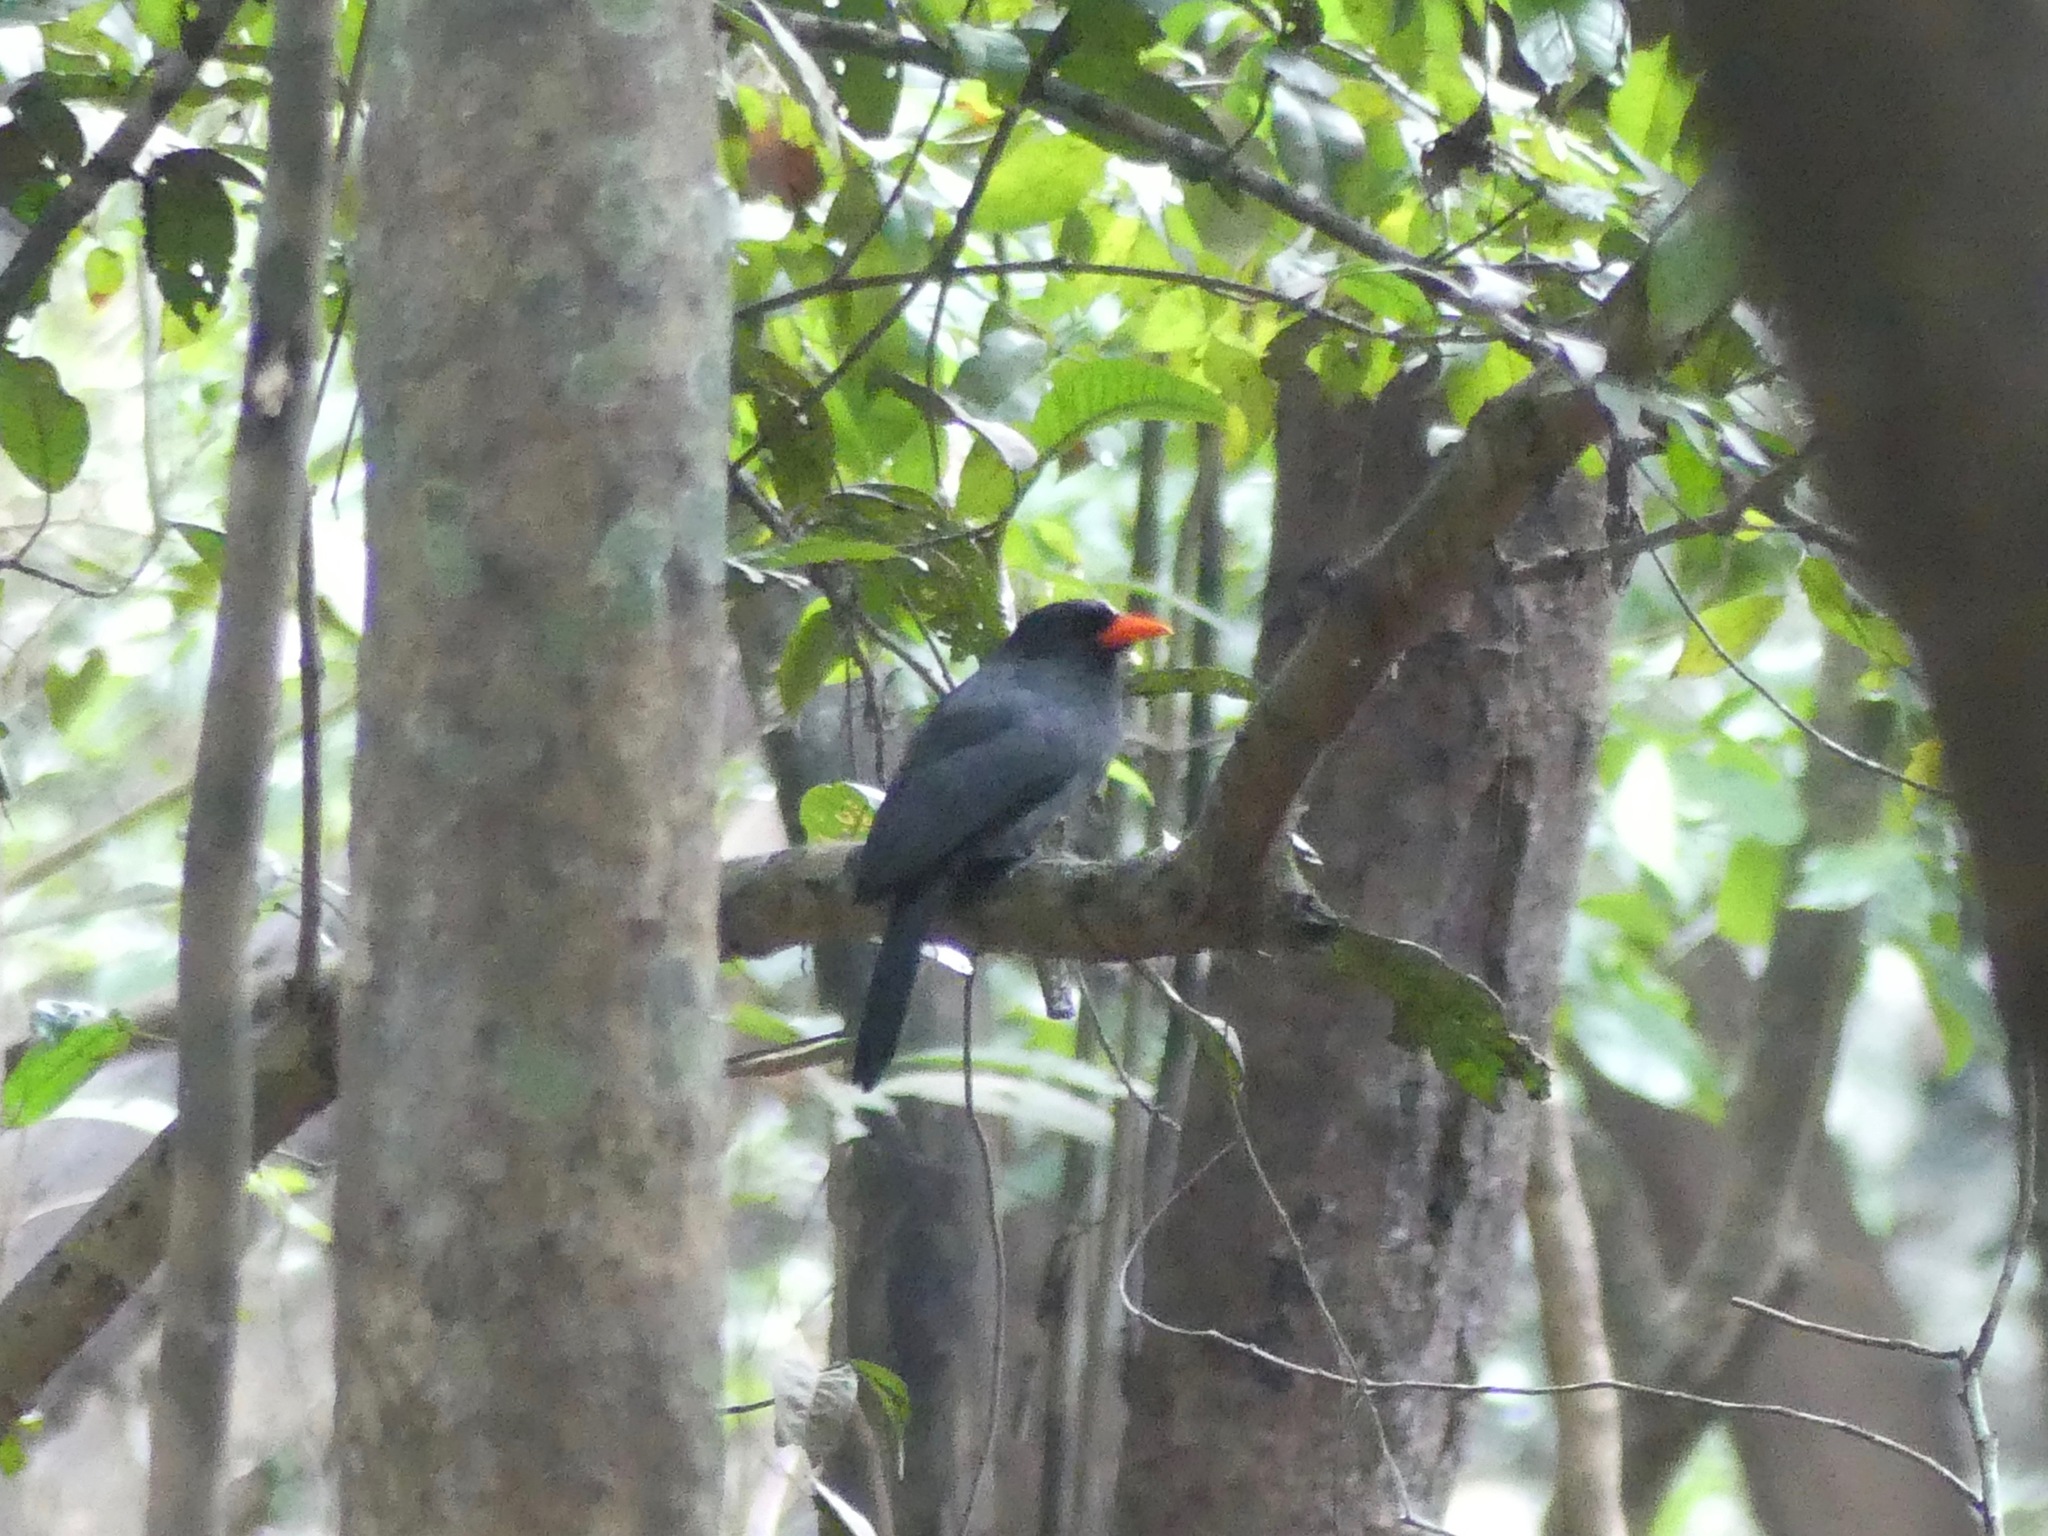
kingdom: Animalia
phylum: Chordata
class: Aves
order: Piciformes
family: Bucconidae
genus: Monasa
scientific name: Monasa nigrifrons
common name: Black-fronted nunbird
